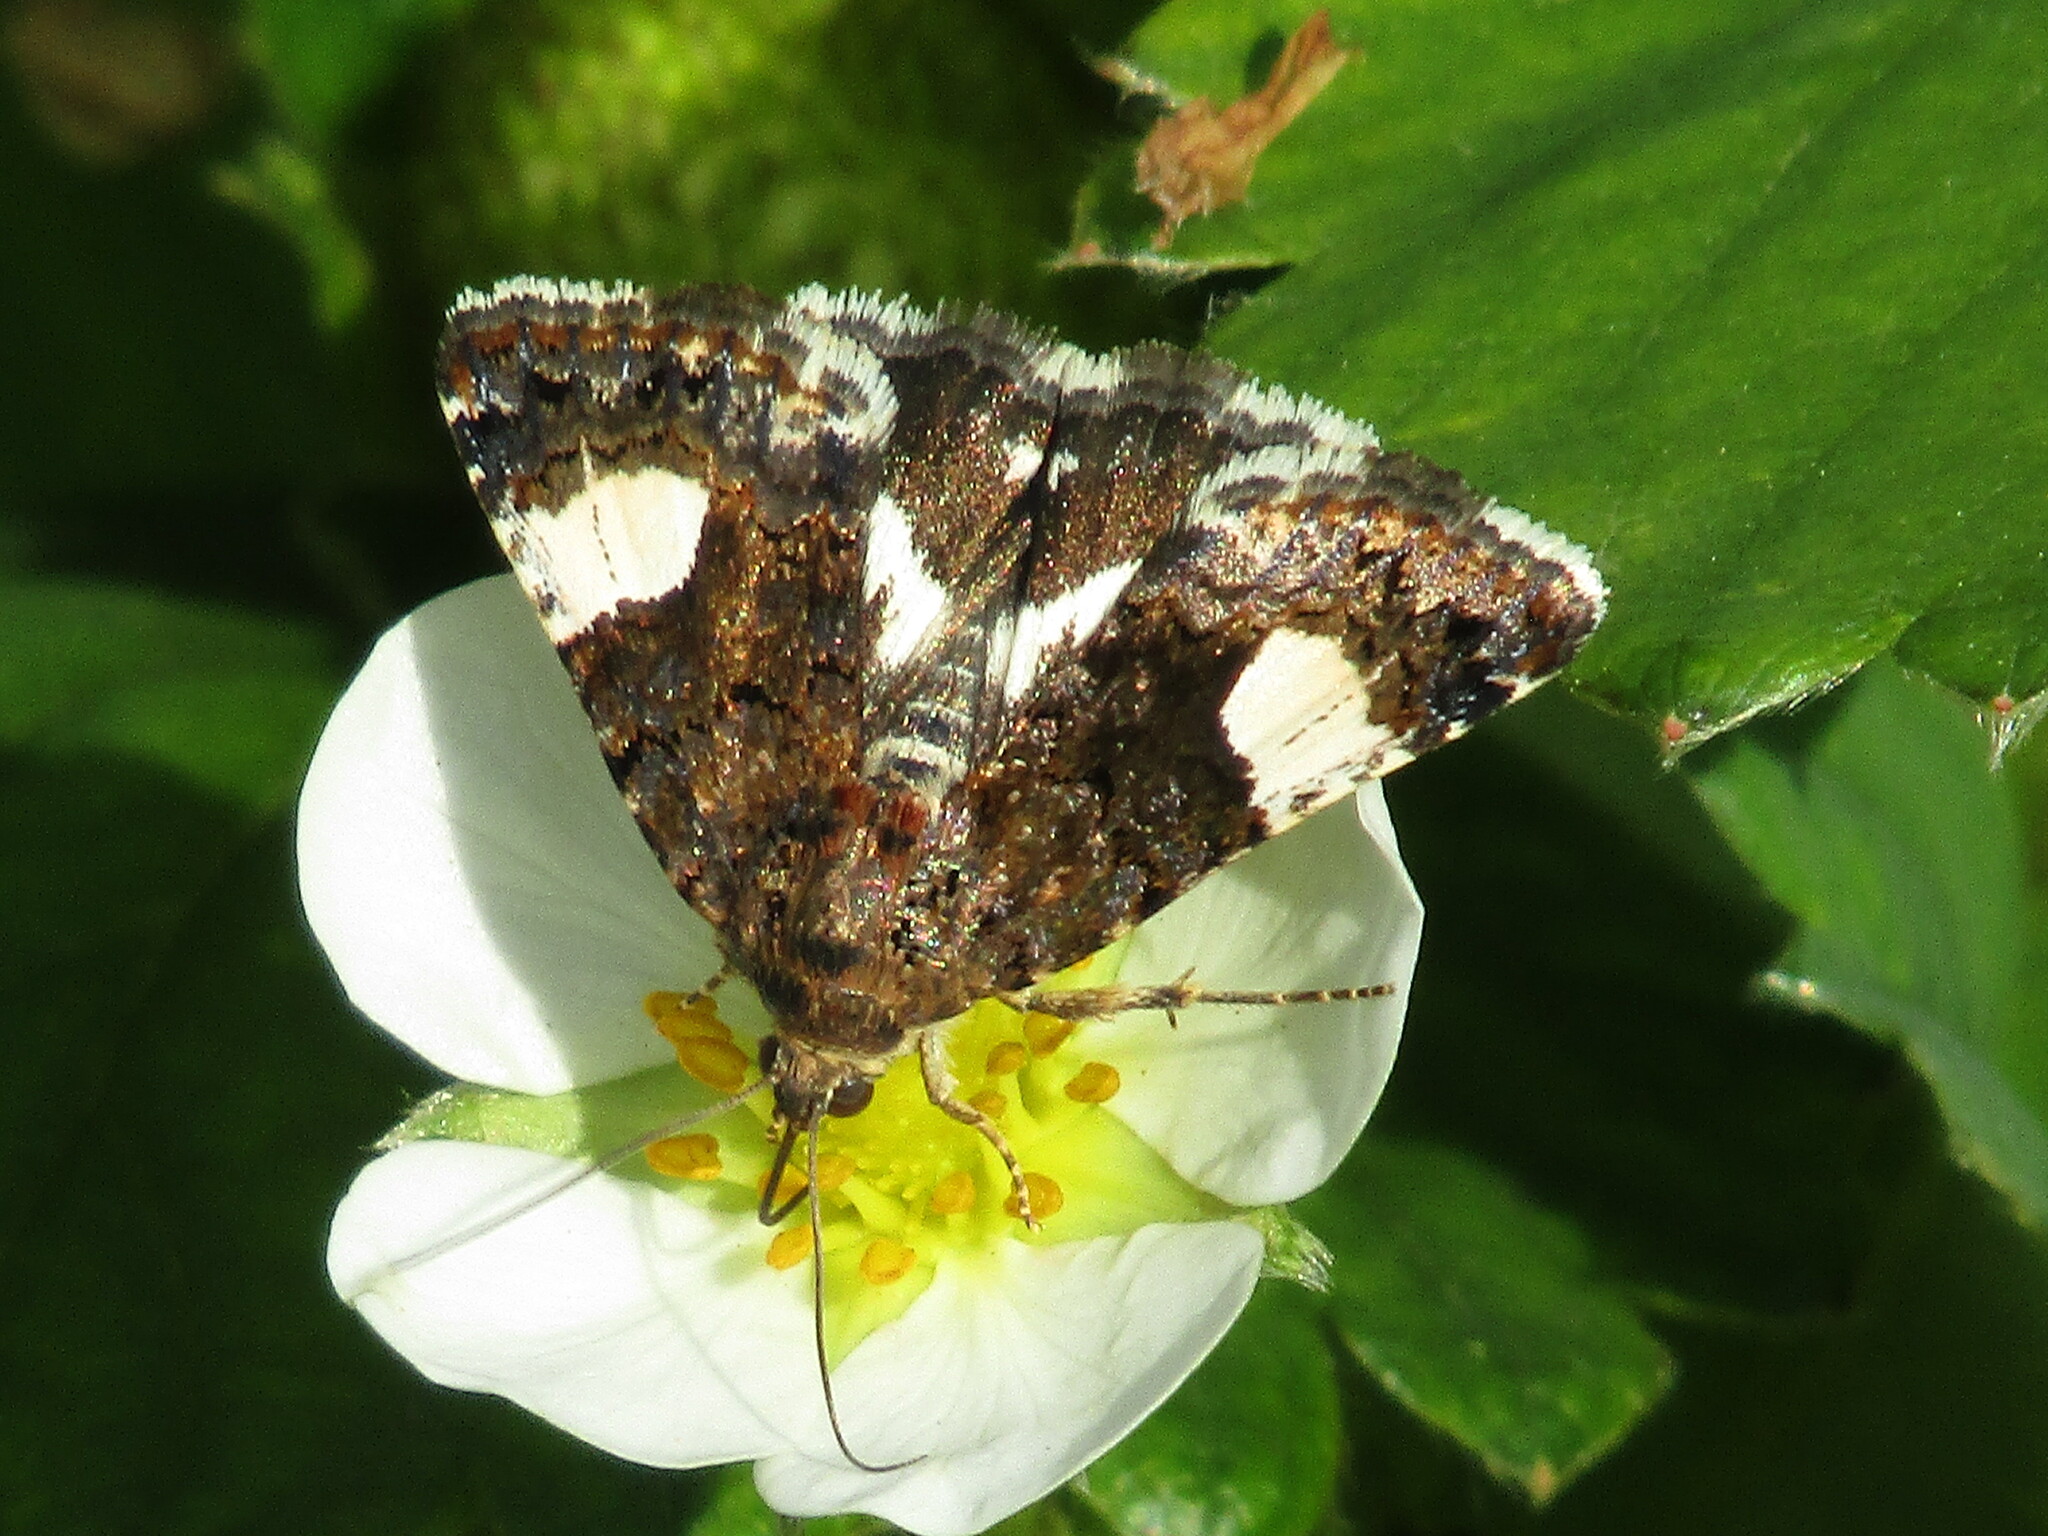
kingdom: Animalia
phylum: Arthropoda
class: Insecta
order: Lepidoptera
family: Erebidae
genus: Tyta
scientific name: Tyta luctuosa
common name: Four-spotted
